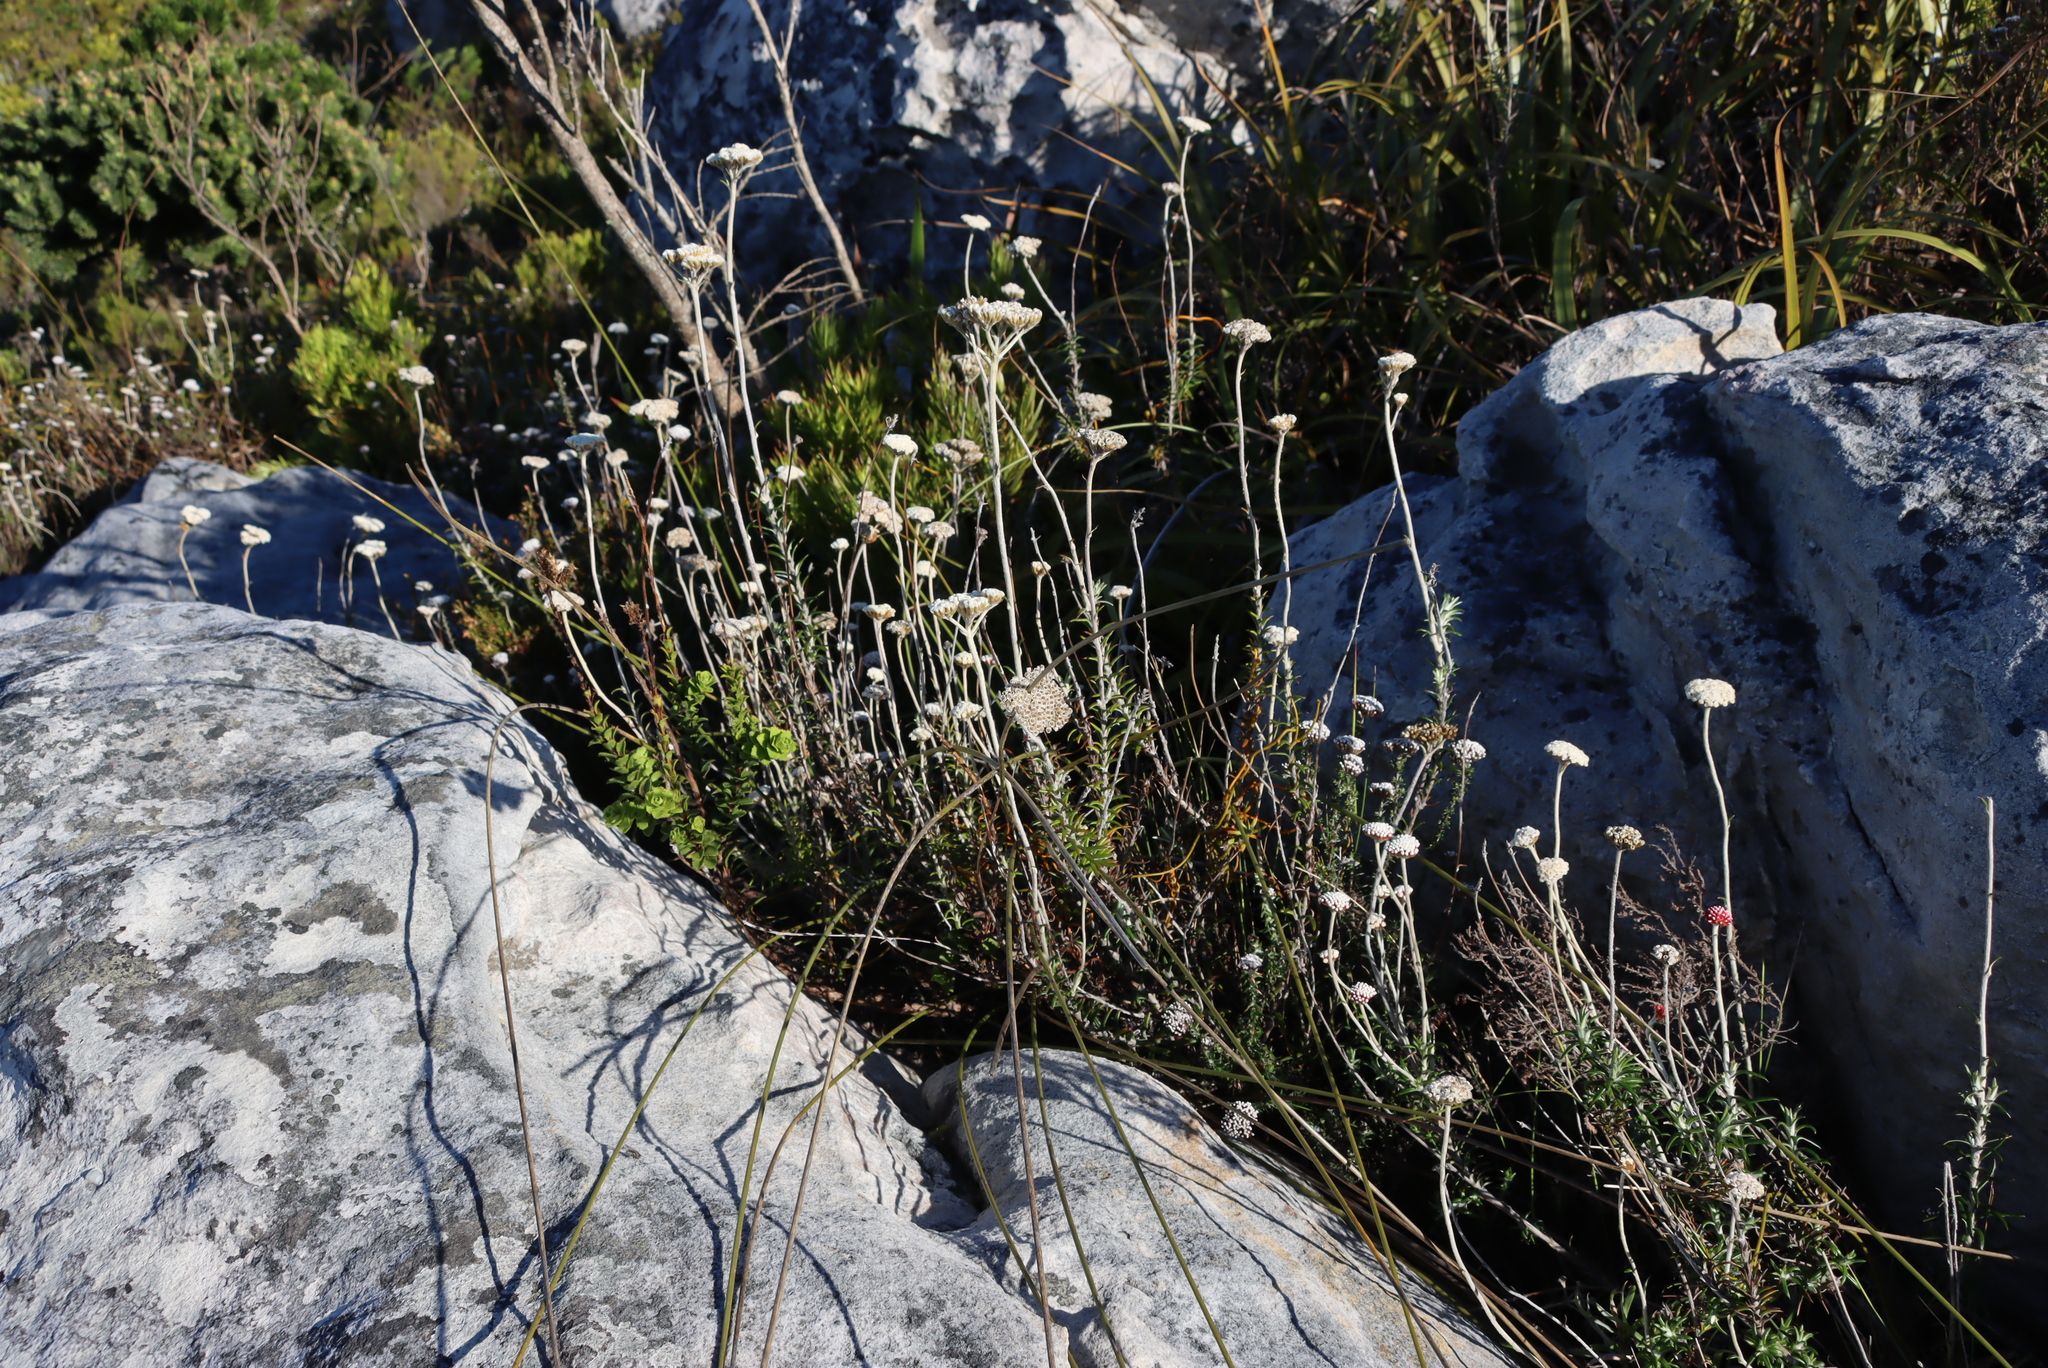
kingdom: Plantae
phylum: Tracheophyta
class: Magnoliopsida
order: Asterales
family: Asteraceae
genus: Anaxeton
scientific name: Anaxeton arborescens
